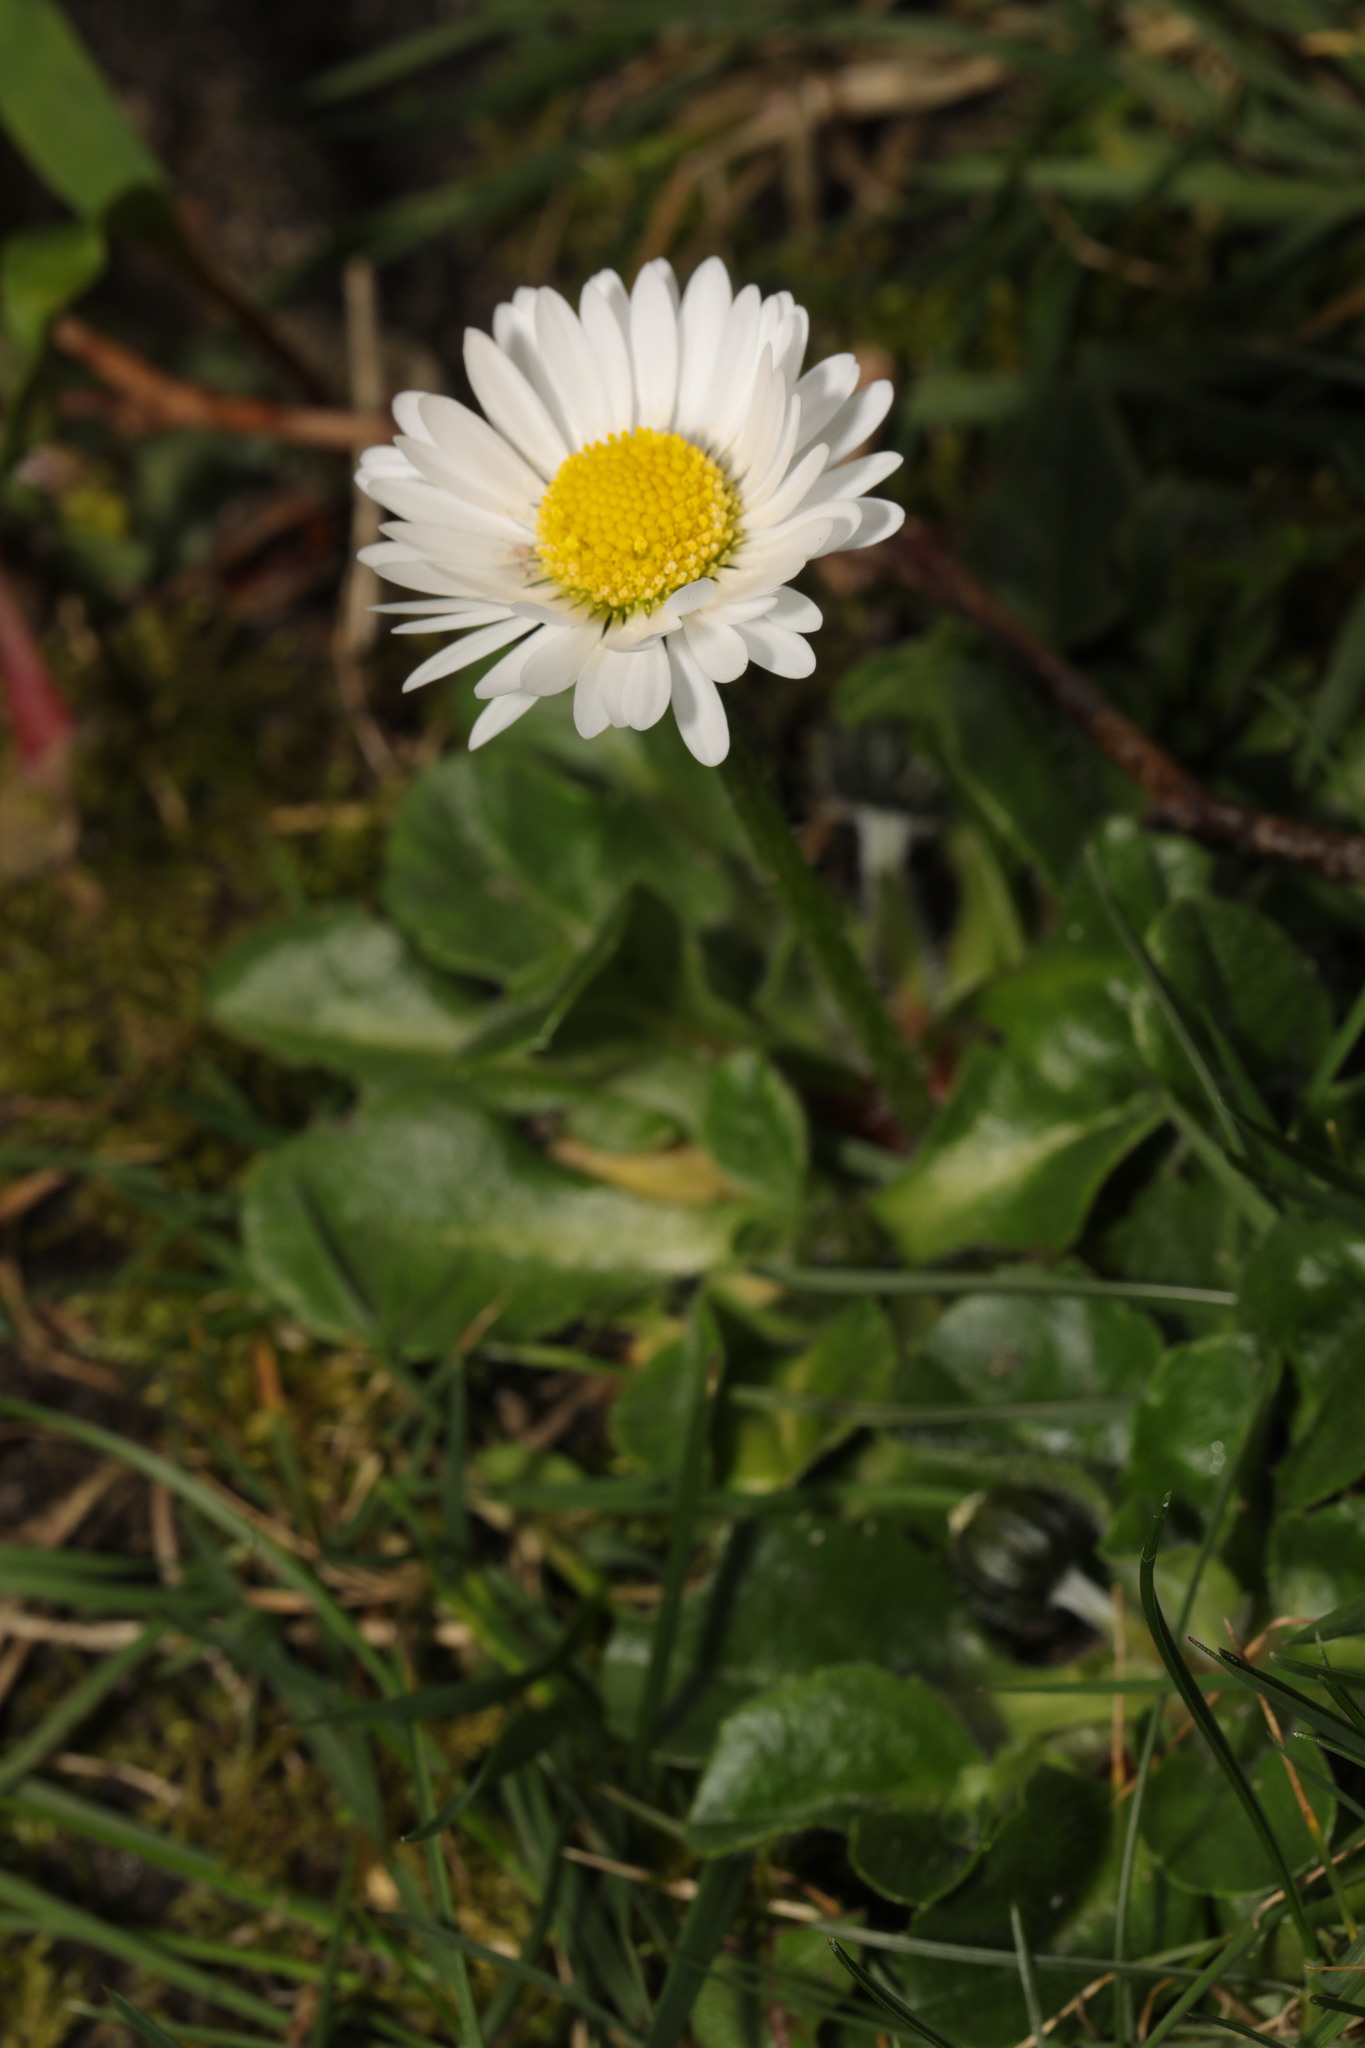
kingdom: Plantae
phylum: Tracheophyta
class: Magnoliopsida
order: Asterales
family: Asteraceae
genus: Bellis
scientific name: Bellis perennis
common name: Lawndaisy
